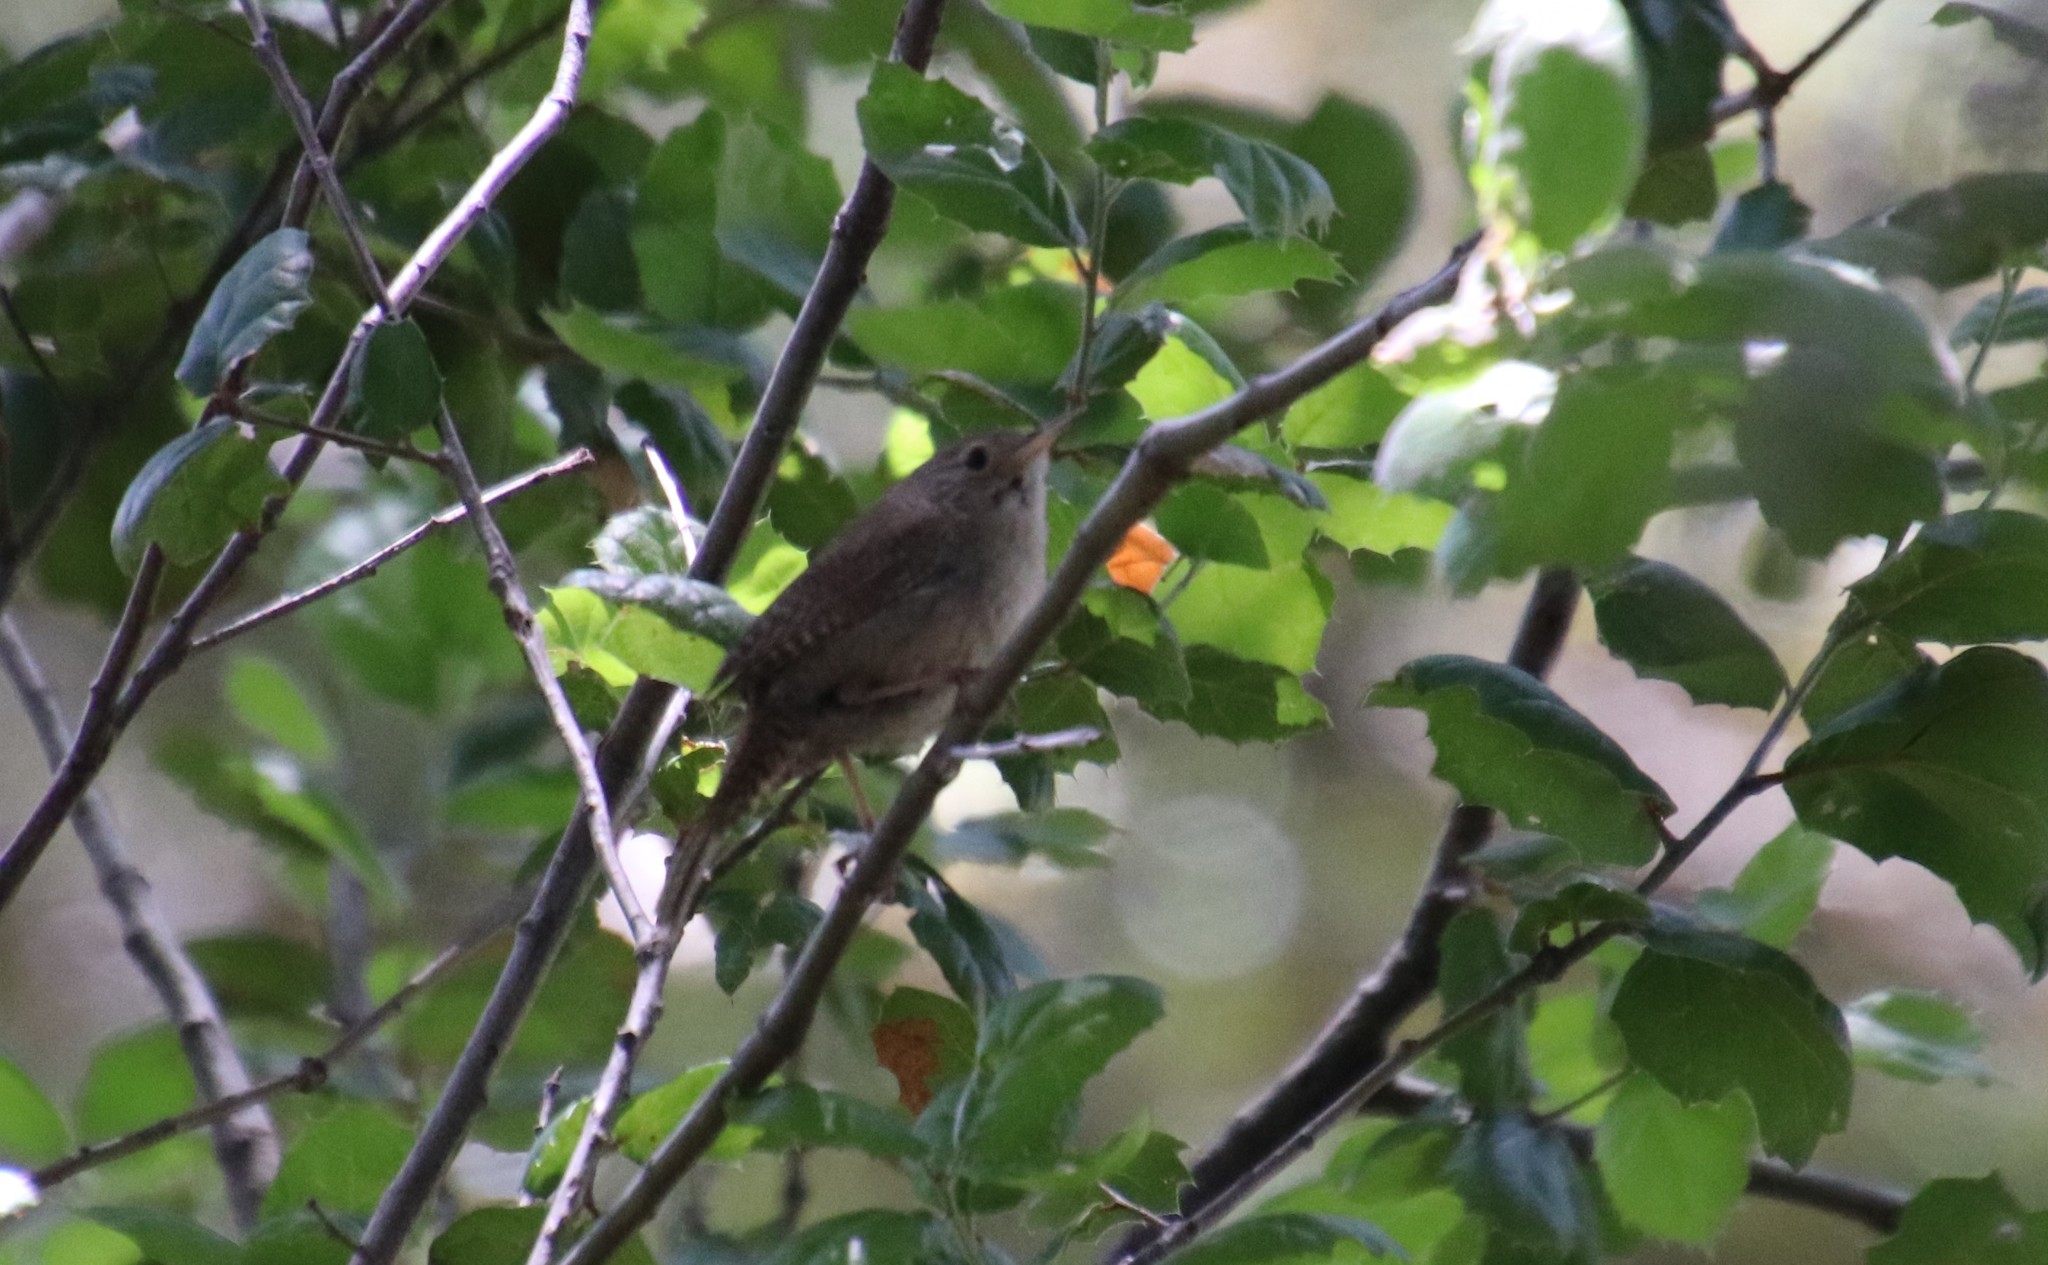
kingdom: Animalia
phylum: Chordata
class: Aves
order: Passeriformes
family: Troglodytidae
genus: Troglodytes
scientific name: Troglodytes aedon
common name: House wren
